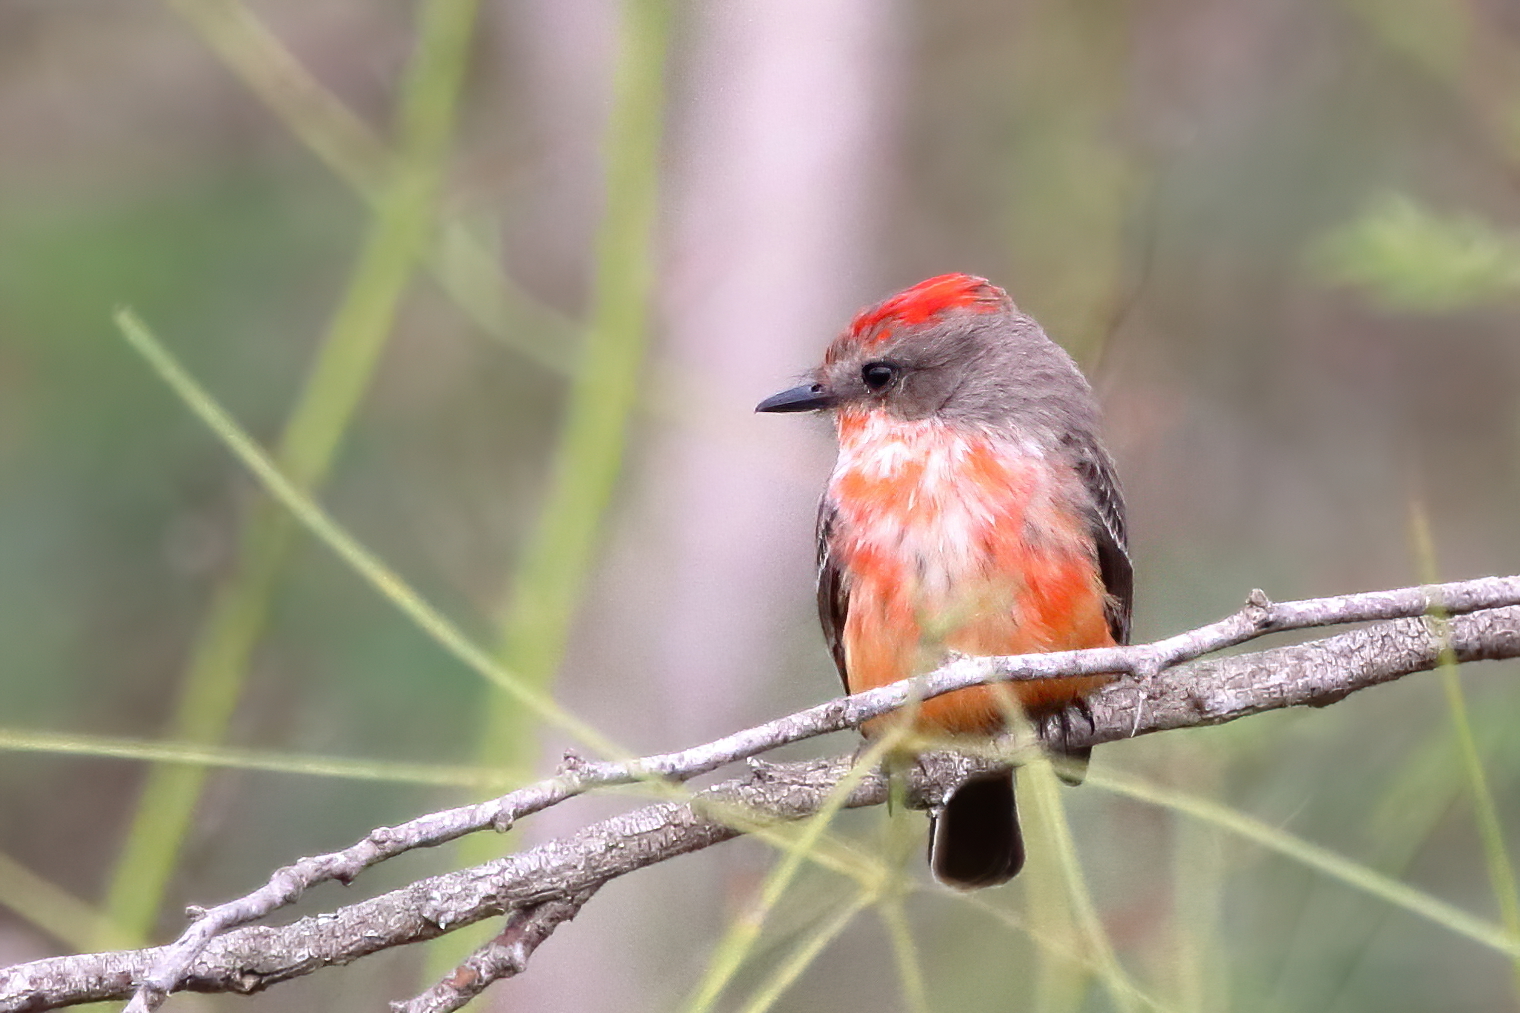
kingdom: Animalia
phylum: Chordata
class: Aves
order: Passeriformes
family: Tyrannidae
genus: Pyrocephalus
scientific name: Pyrocephalus rubinus
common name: Vermilion flycatcher
